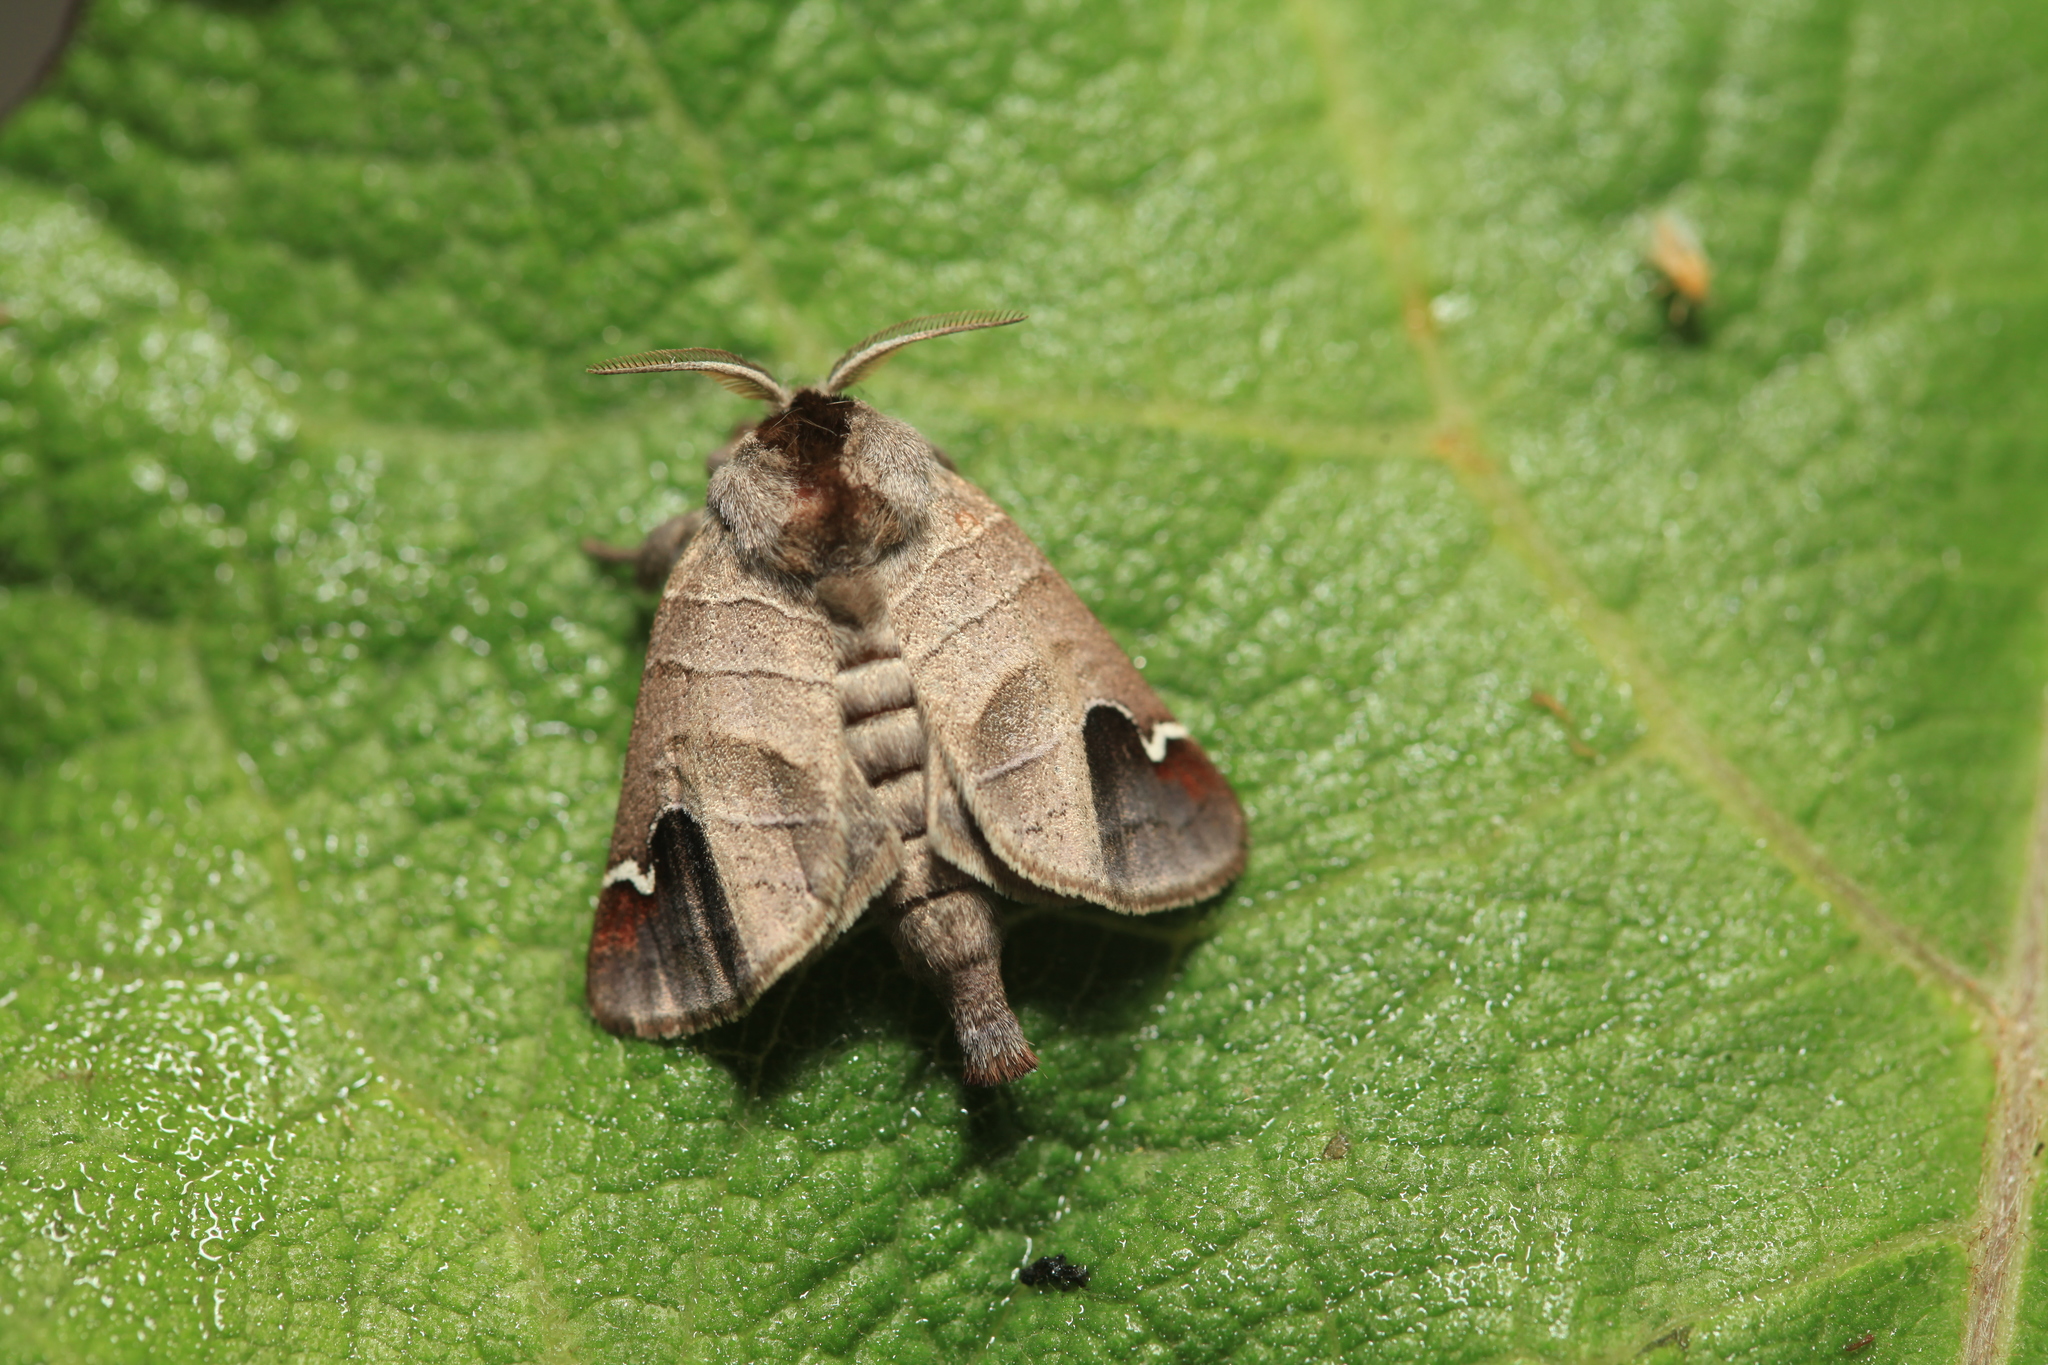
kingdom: Animalia
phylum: Arthropoda
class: Insecta
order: Lepidoptera
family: Notodontidae
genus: Clostera
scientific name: Clostera albosigma
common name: Sigmoid prominent
